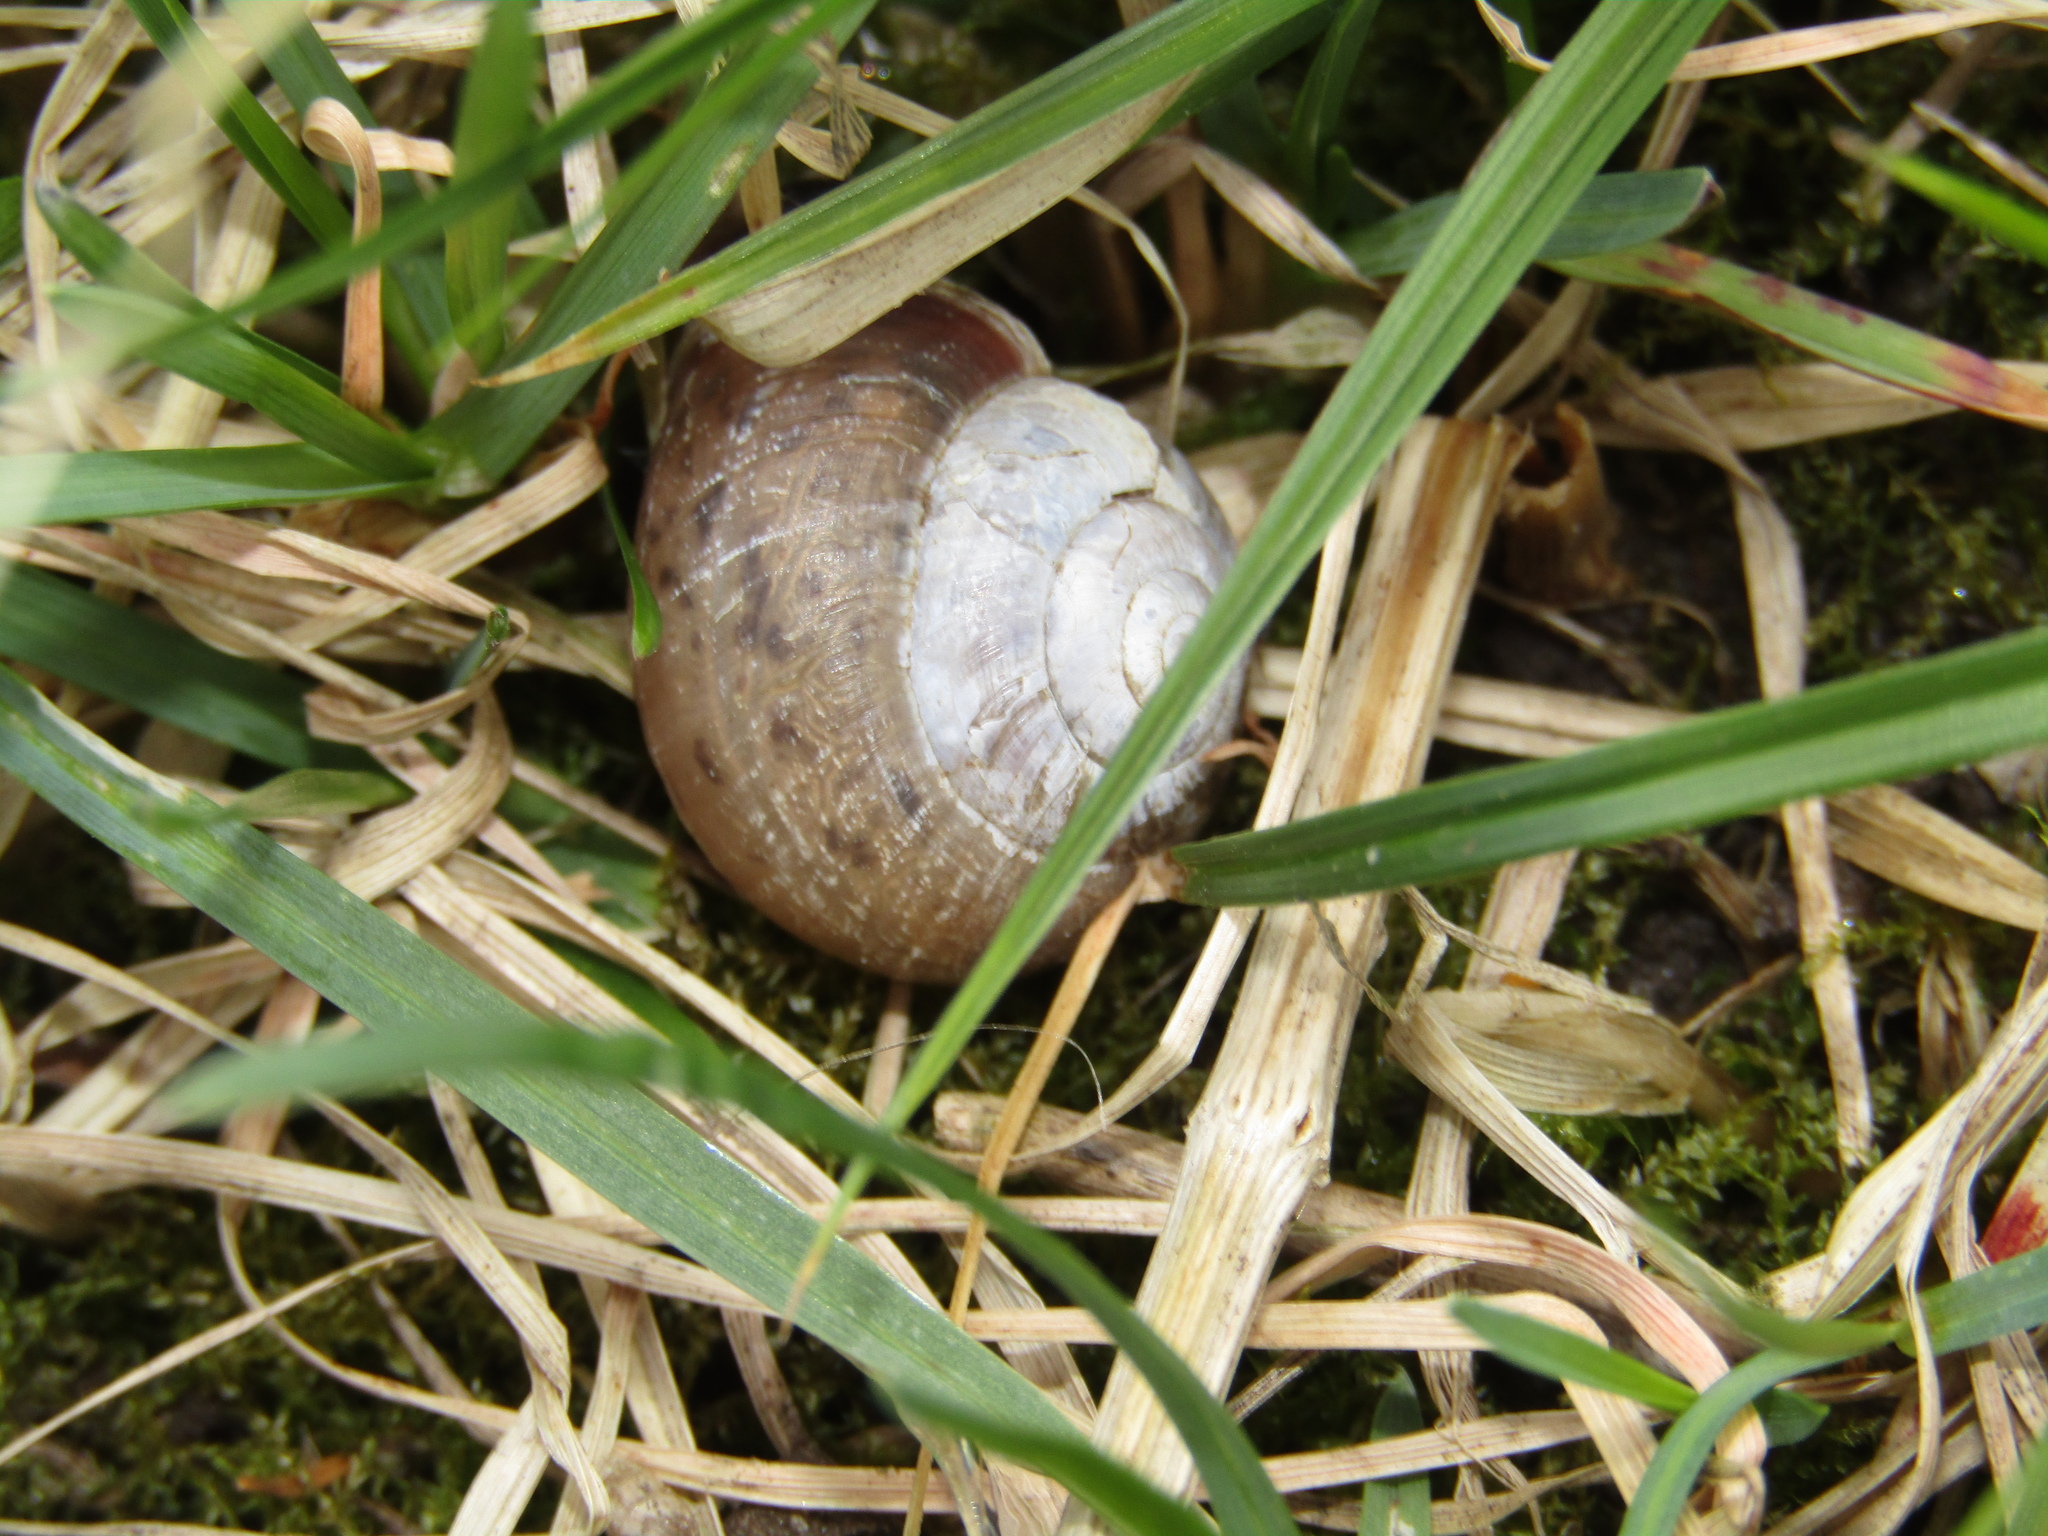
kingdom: Animalia
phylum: Mollusca
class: Gastropoda
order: Stylommatophora
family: Camaenidae
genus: Fruticicola
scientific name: Fruticicola fruticum
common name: Bush snail
